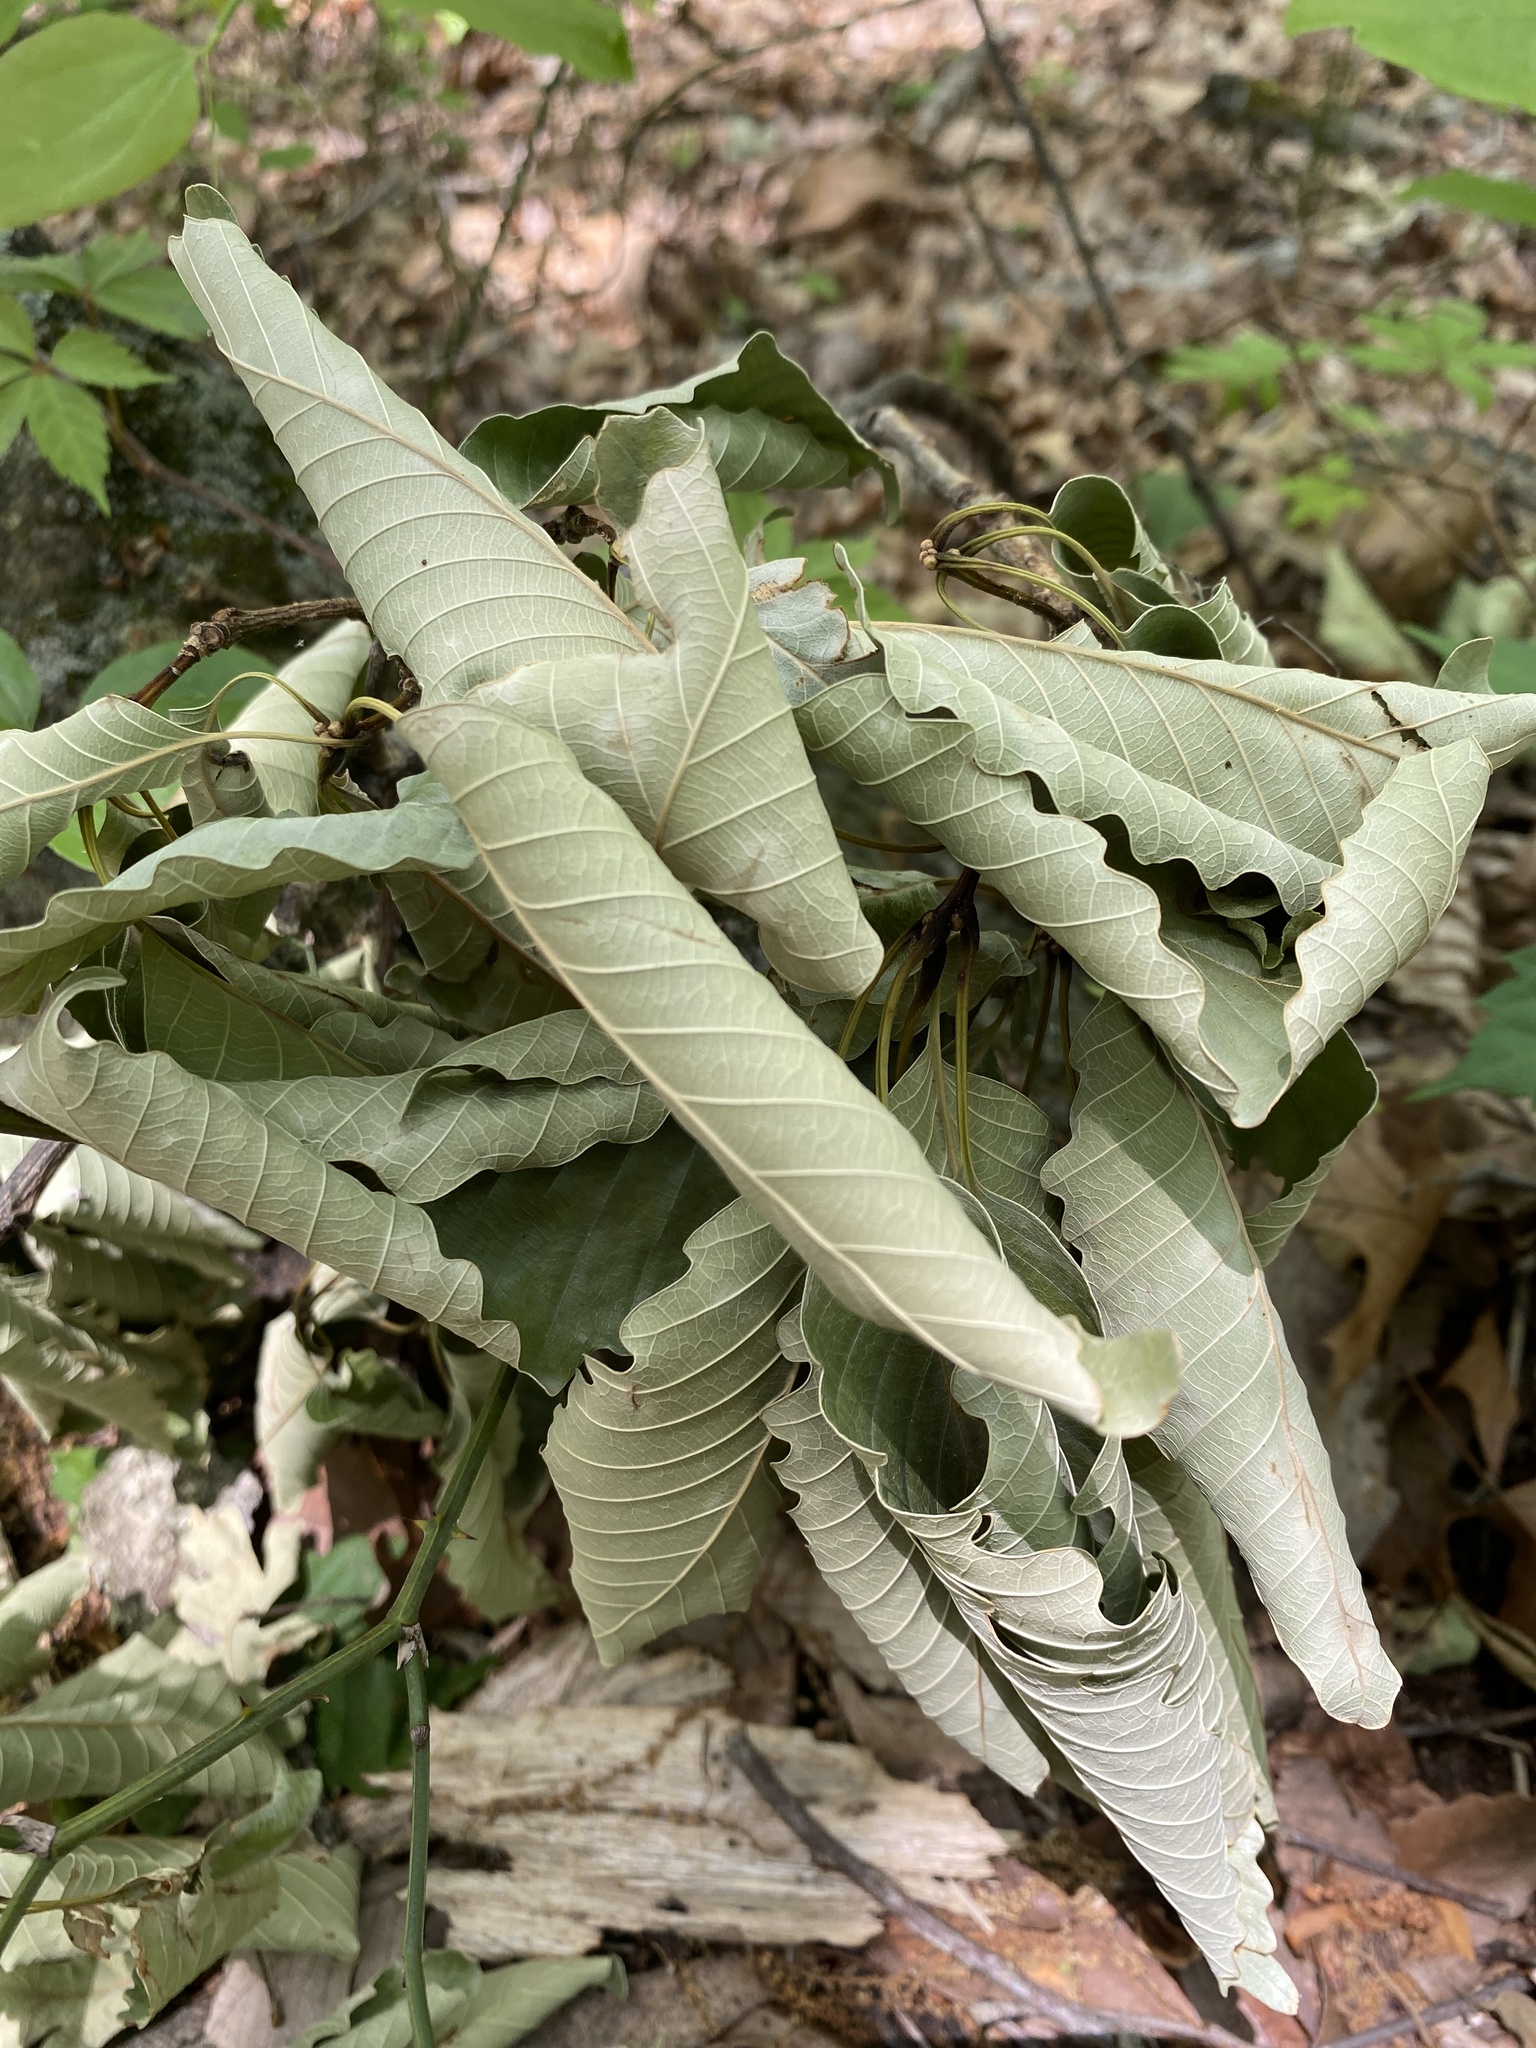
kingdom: Plantae
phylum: Tracheophyta
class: Magnoliopsida
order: Fagales
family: Fagaceae
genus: Quercus
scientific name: Quercus montana
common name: Chestnut oak
